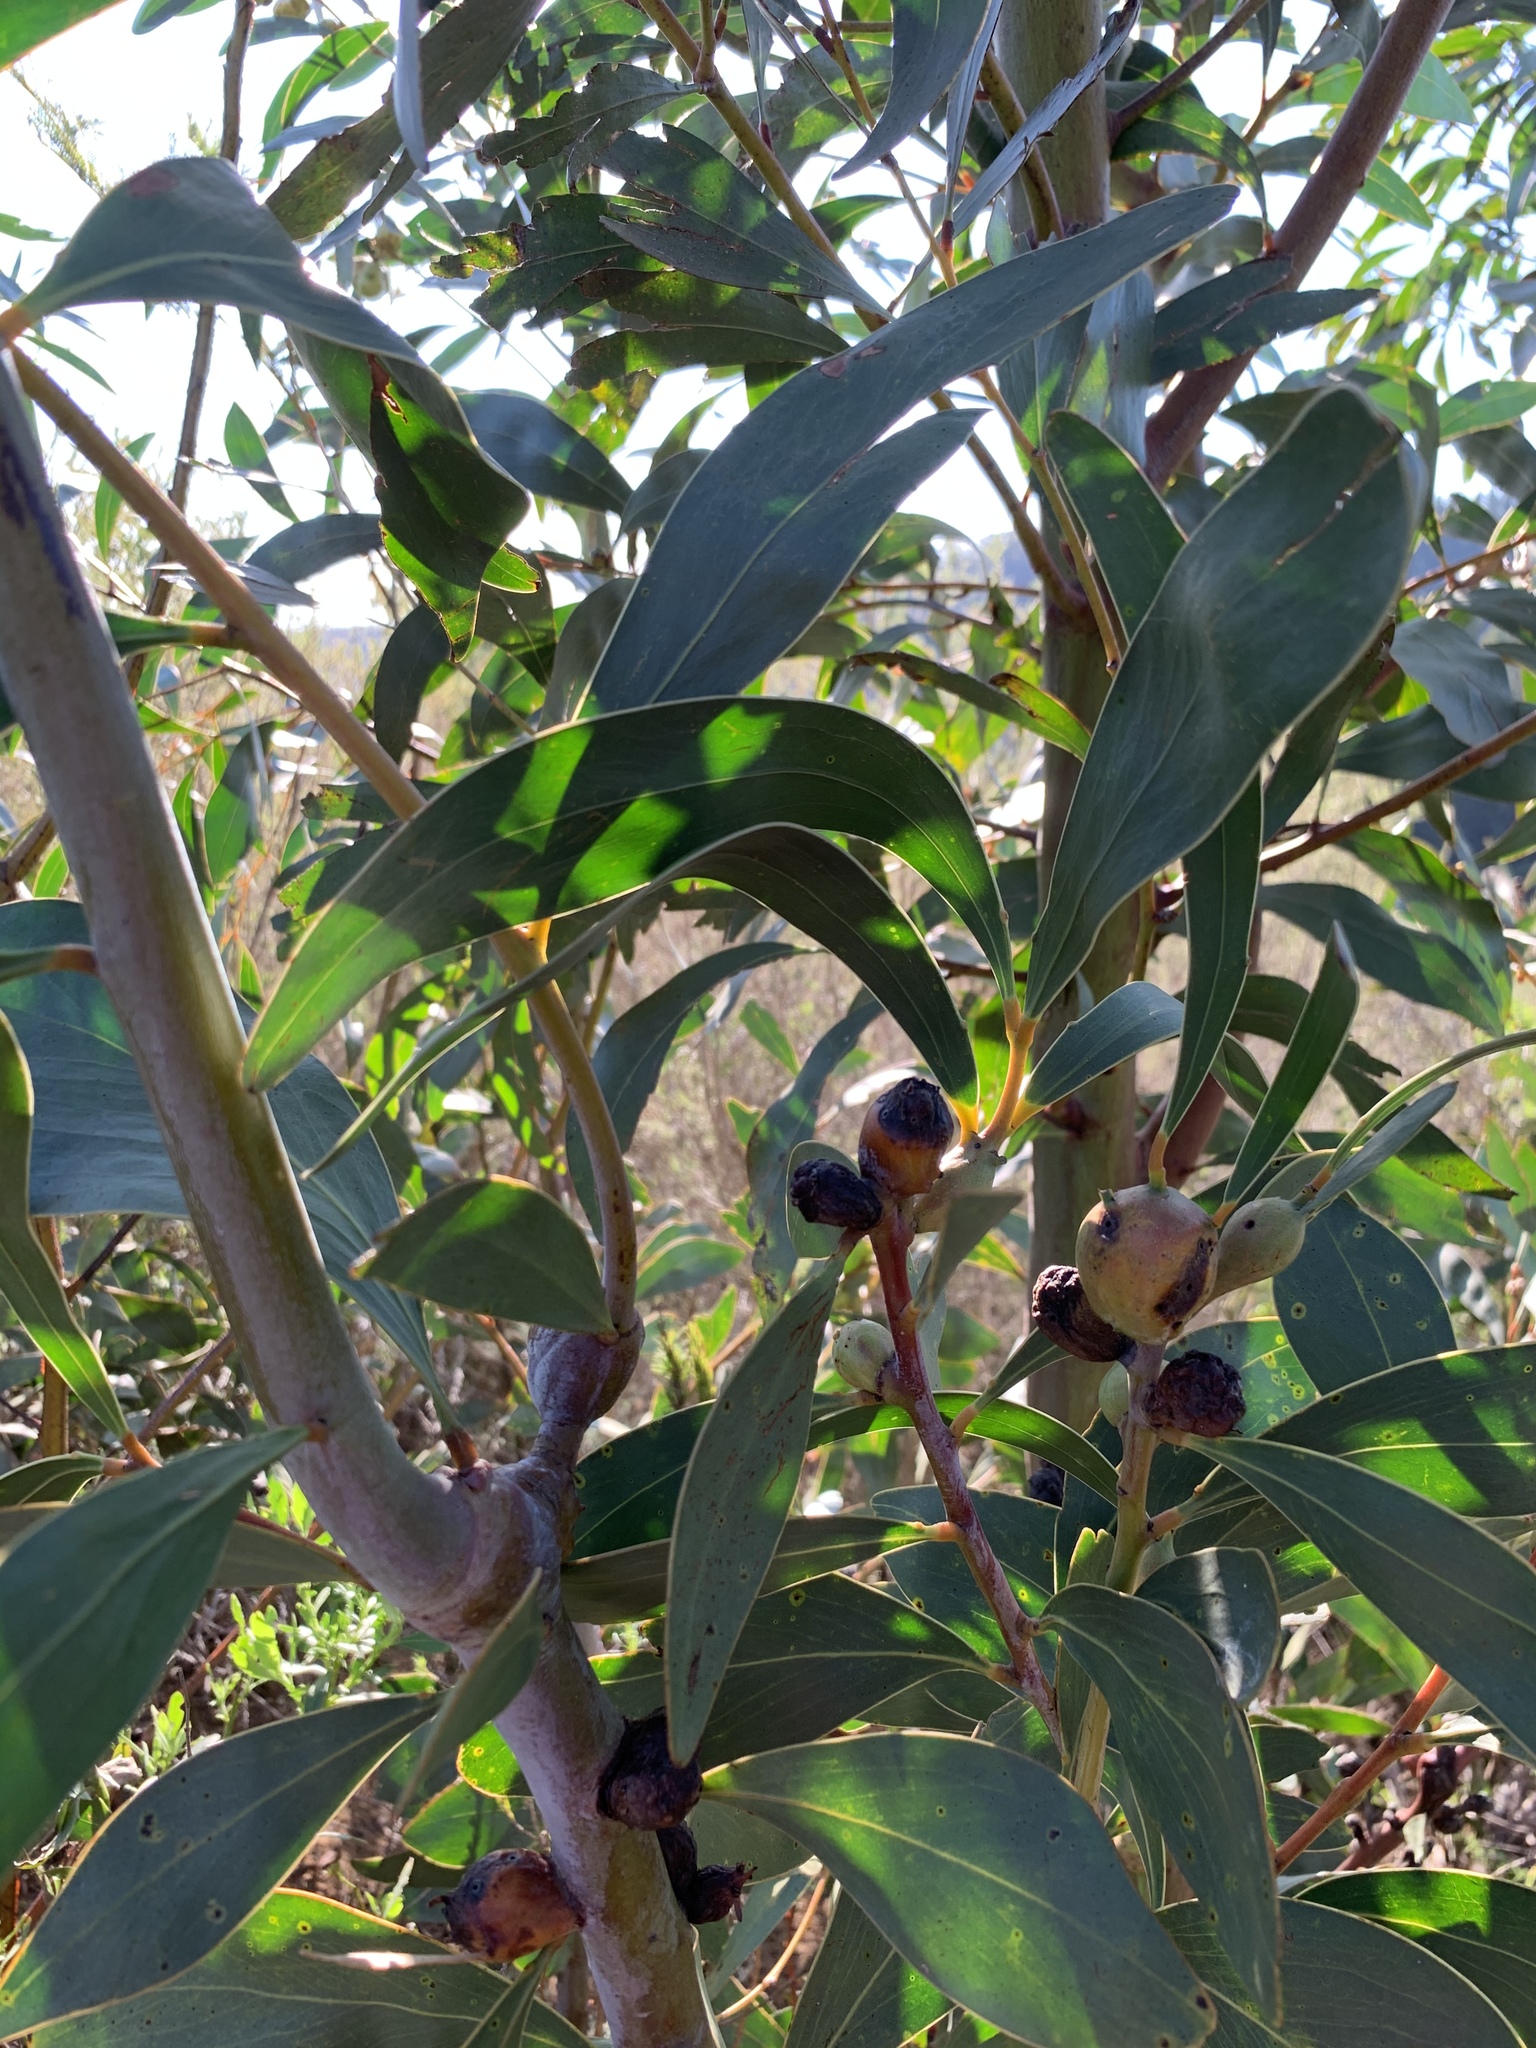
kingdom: Plantae
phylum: Tracheophyta
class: Magnoliopsida
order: Fabales
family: Fabaceae
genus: Acacia
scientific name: Acacia pycnantha
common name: Golden wattle
